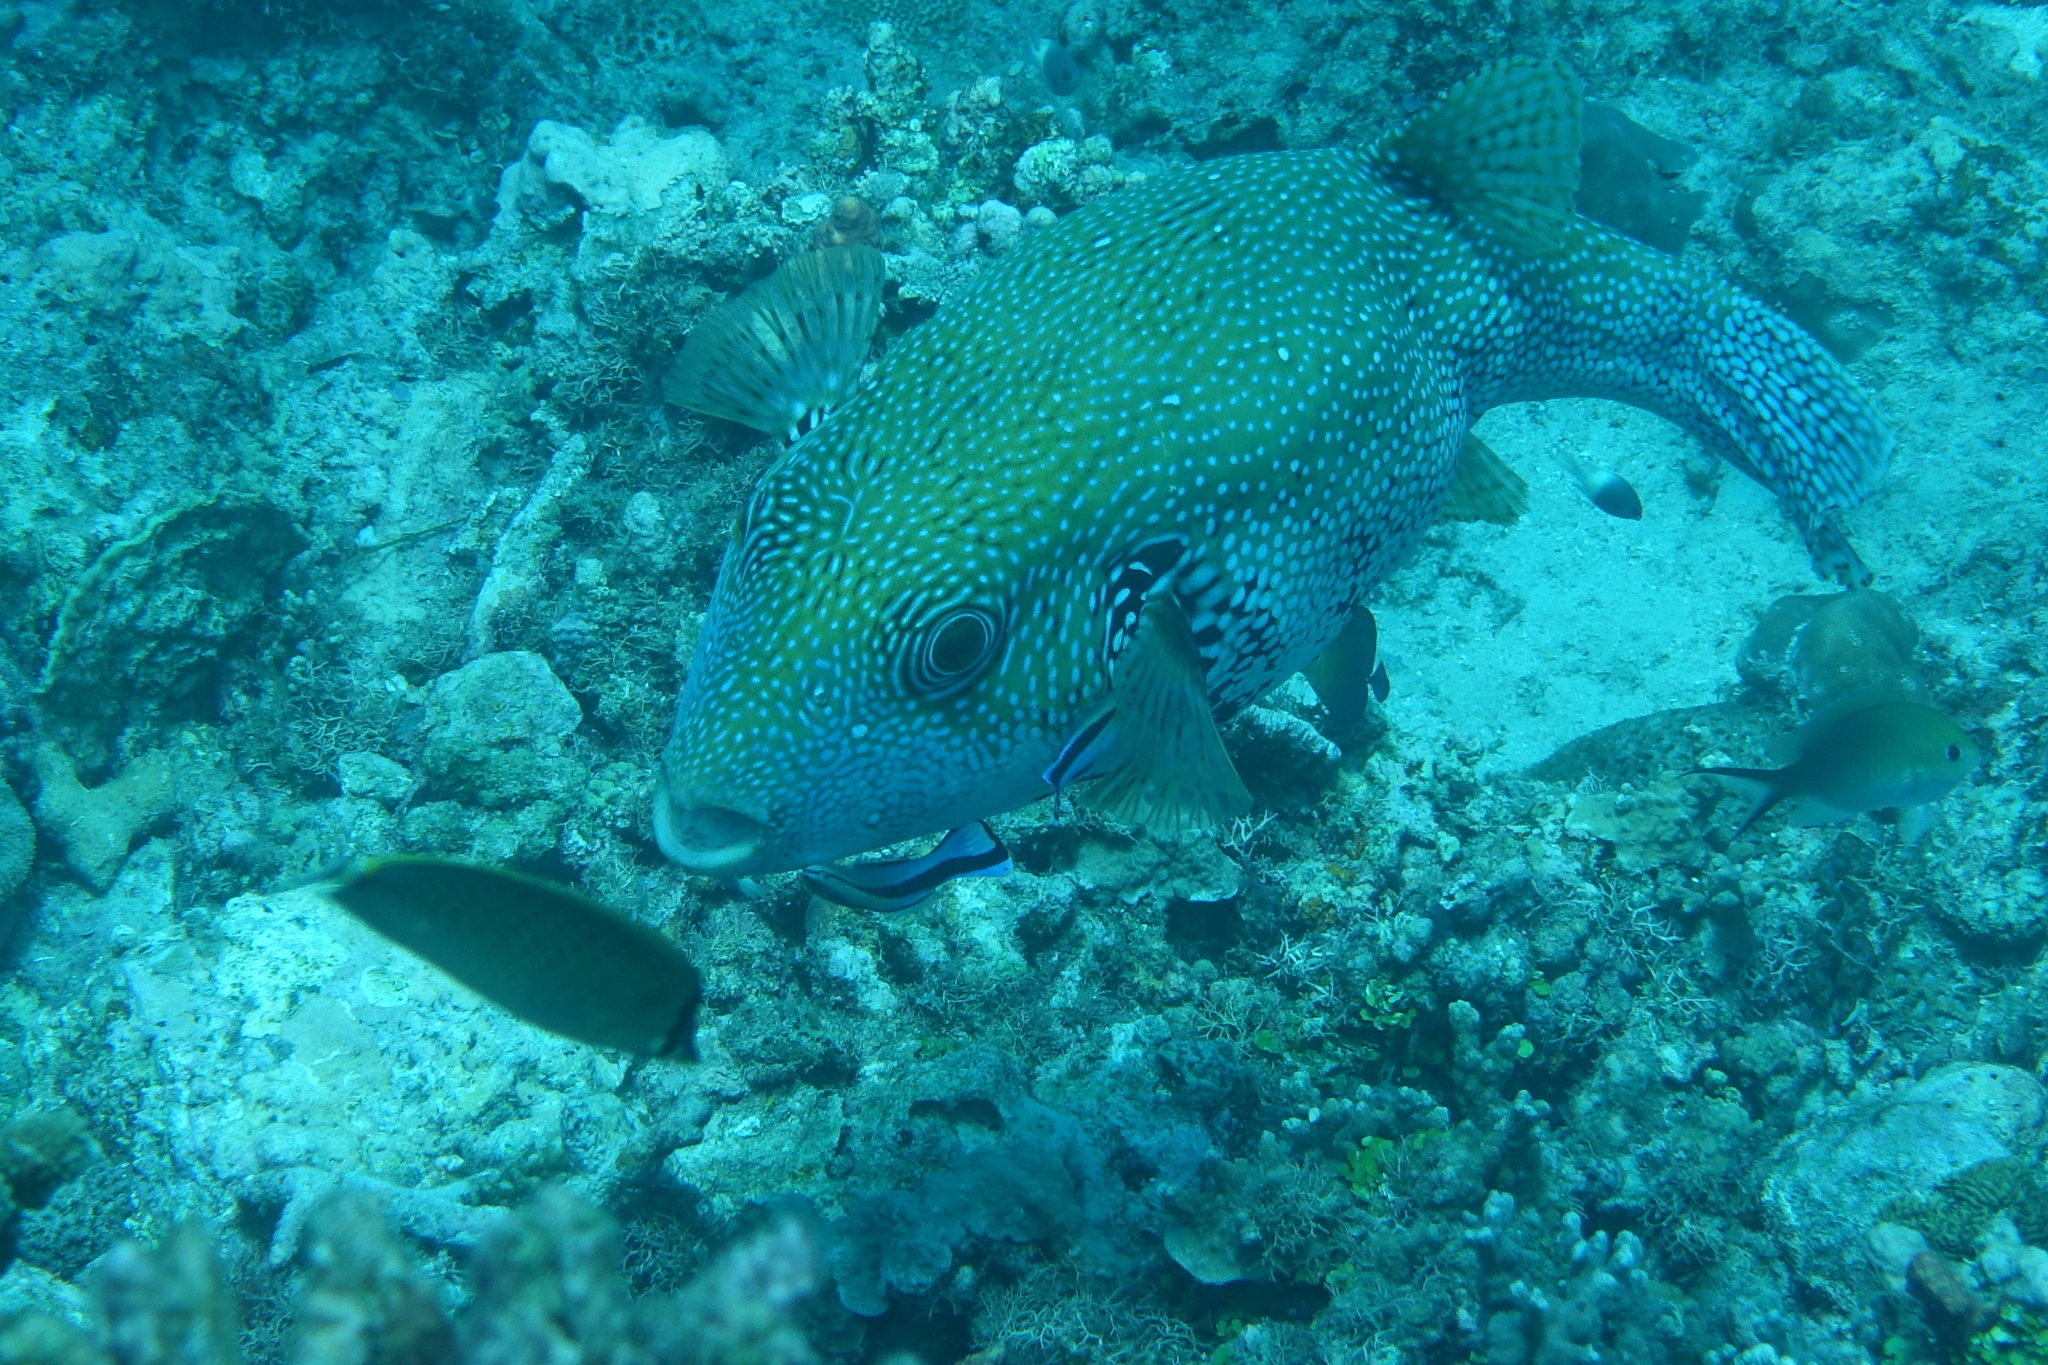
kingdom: Animalia
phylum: Chordata
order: Tetraodontiformes
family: Tetraodontidae
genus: Arothron
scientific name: Arothron caeruleopunctatus
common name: Blue-spotted puffer
